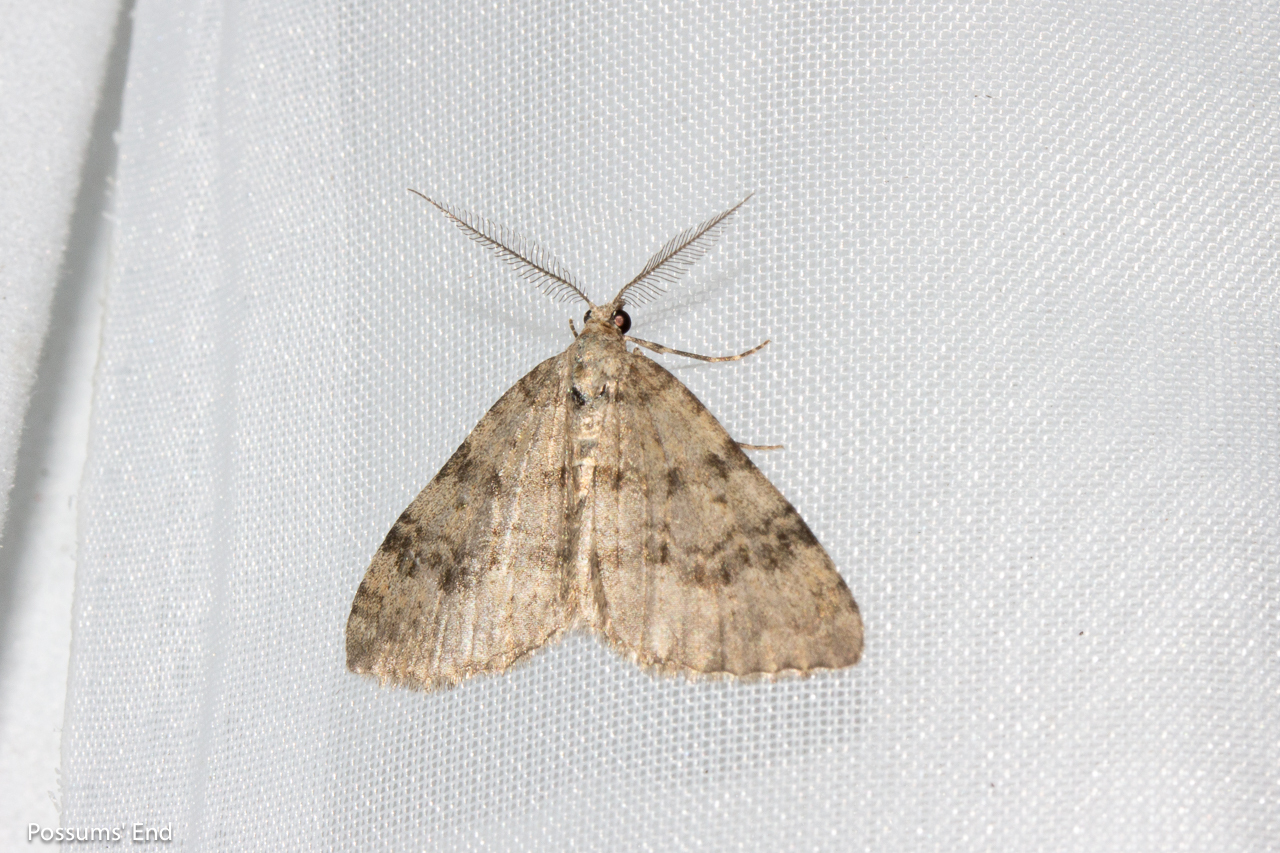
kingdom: Animalia
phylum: Arthropoda
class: Insecta
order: Lepidoptera
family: Geometridae
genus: Helastia
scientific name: Helastia corcularia
